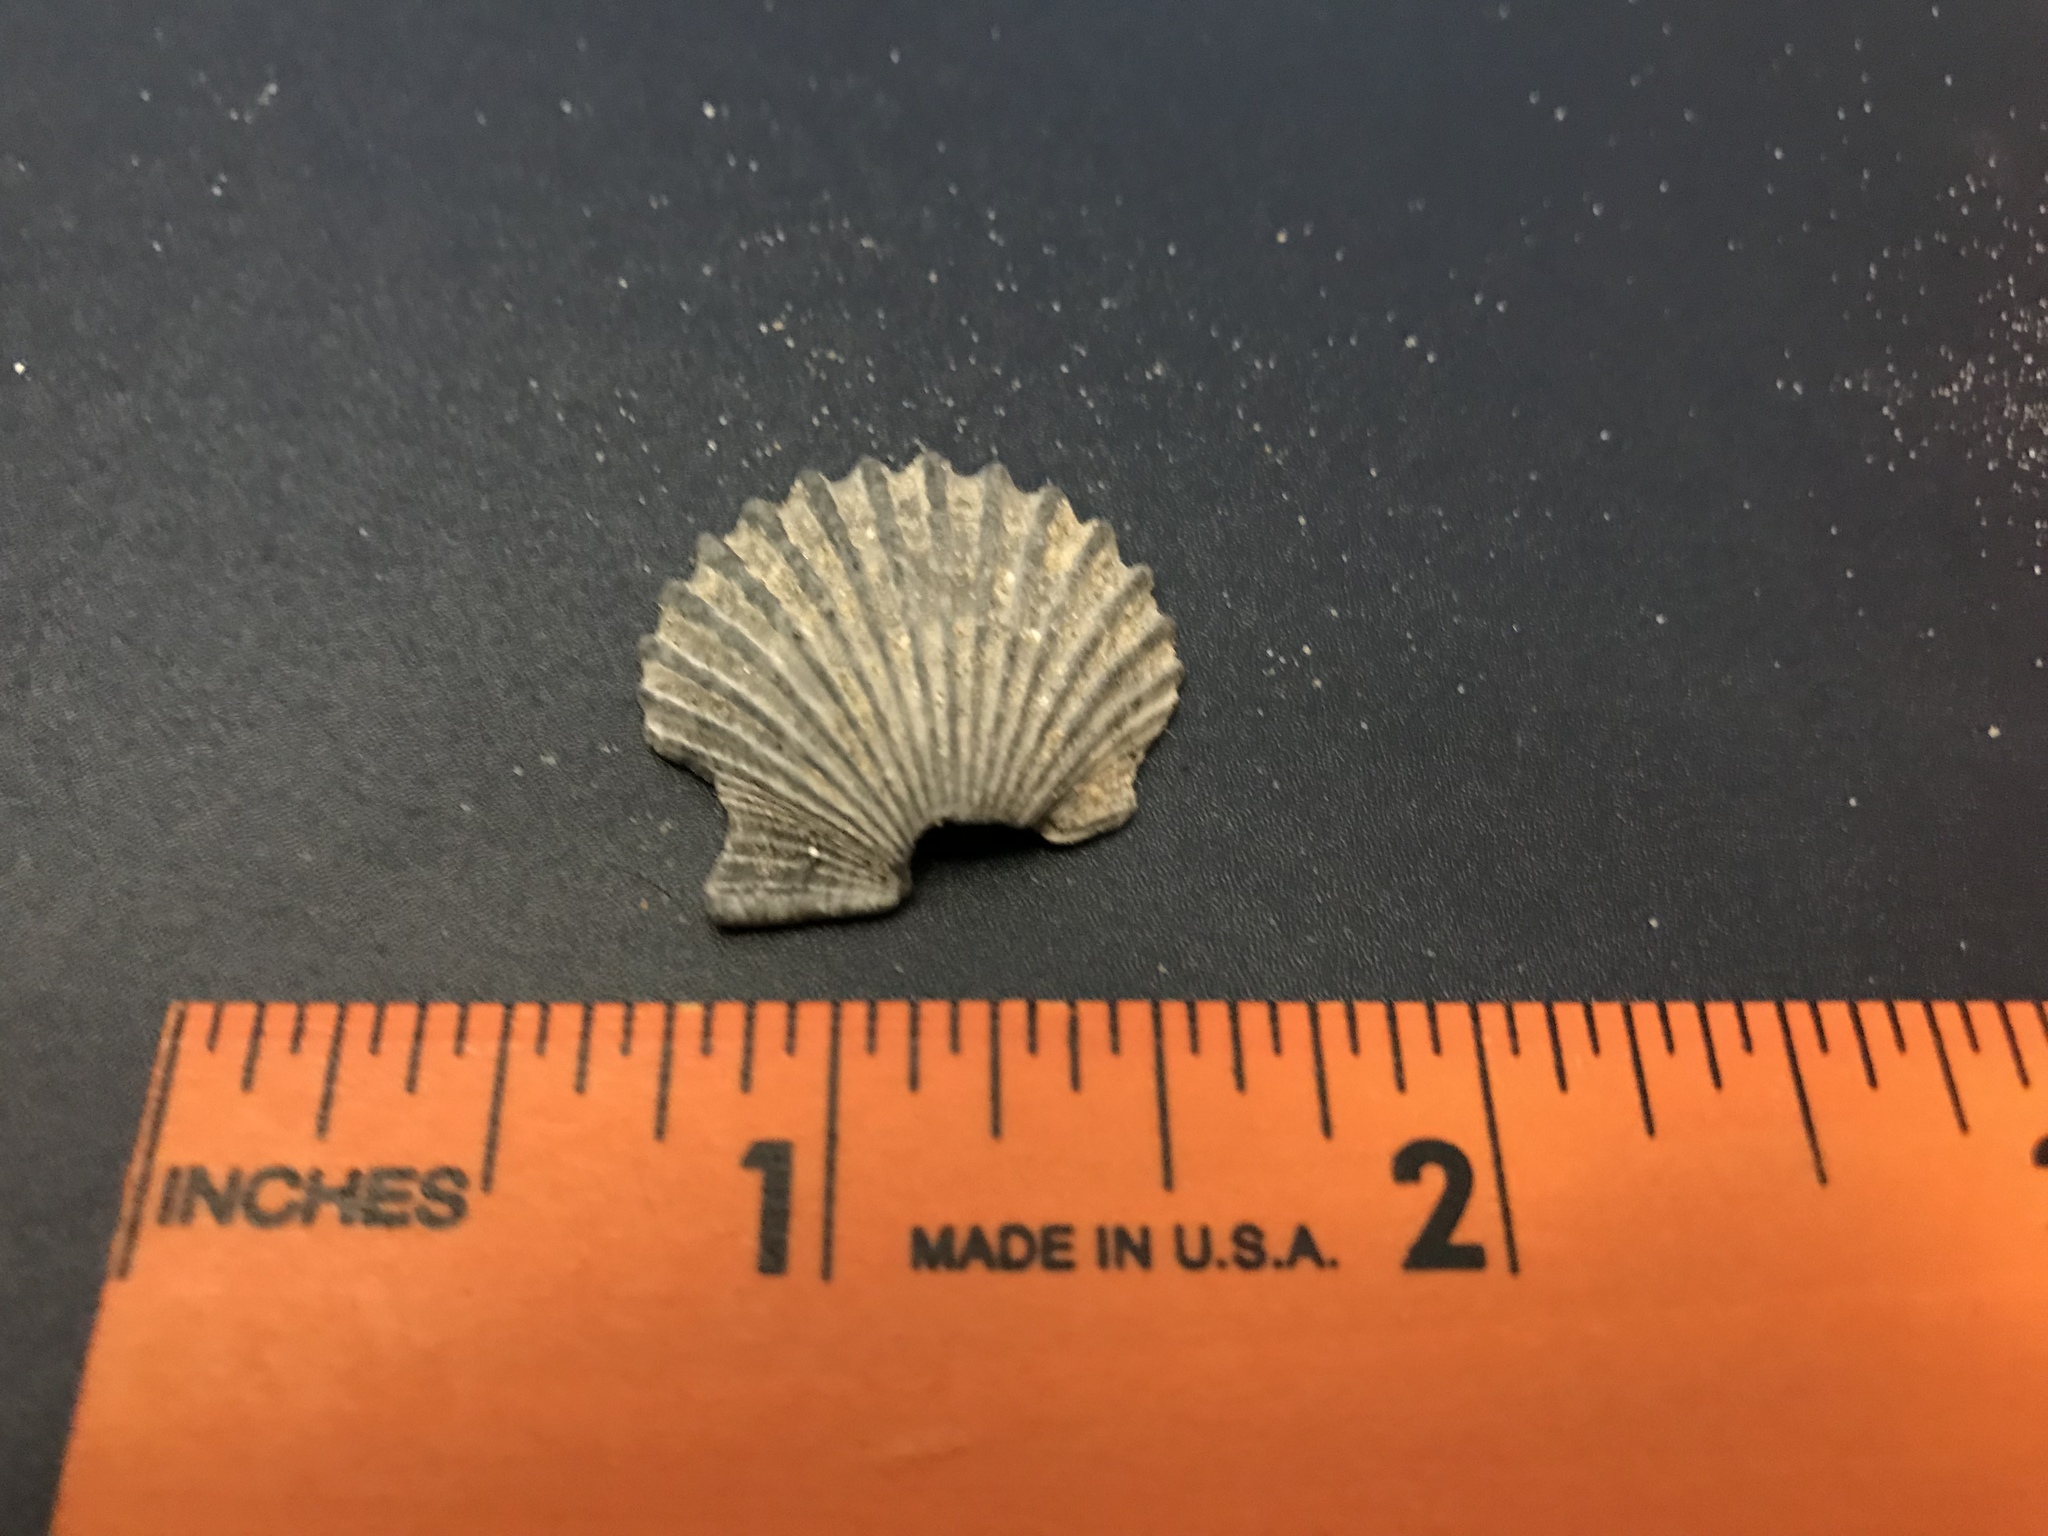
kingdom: Animalia
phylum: Mollusca
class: Bivalvia
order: Pectinida
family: Pectinidae
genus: Argopecten
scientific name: Argopecten irradians
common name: Atlantic bay scallop
